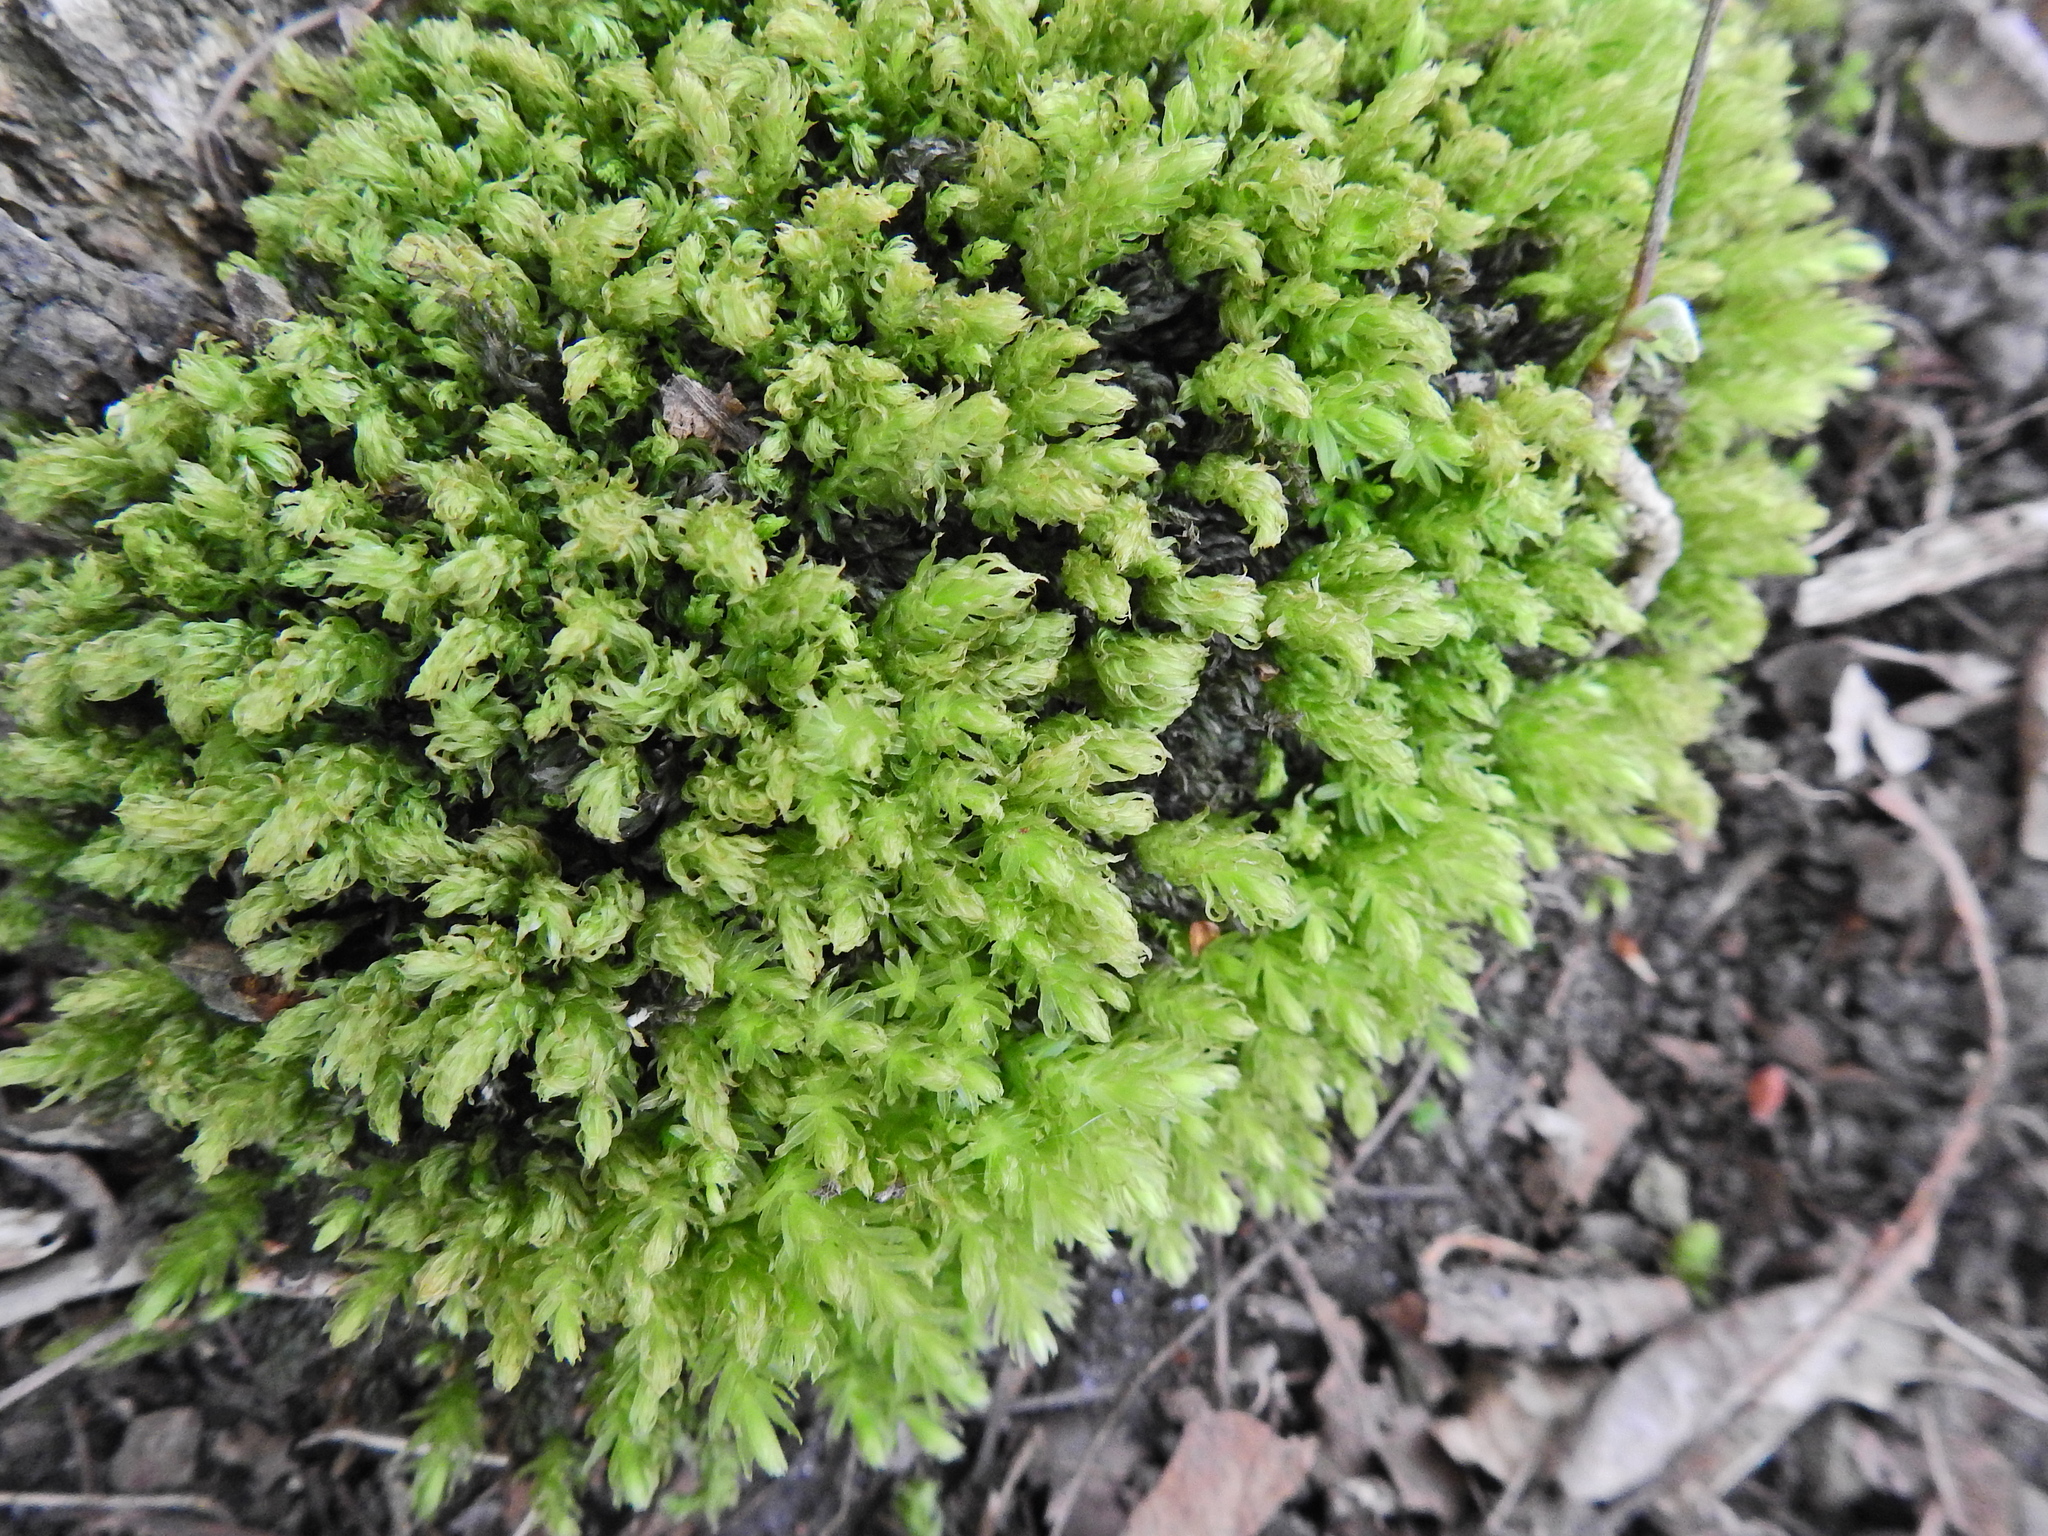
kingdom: Plantae
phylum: Bryophyta
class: Bryopsida
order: Bryales
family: Mniaceae
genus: Mnium
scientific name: Mnium hornum
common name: Swan's-neck leafy moss
